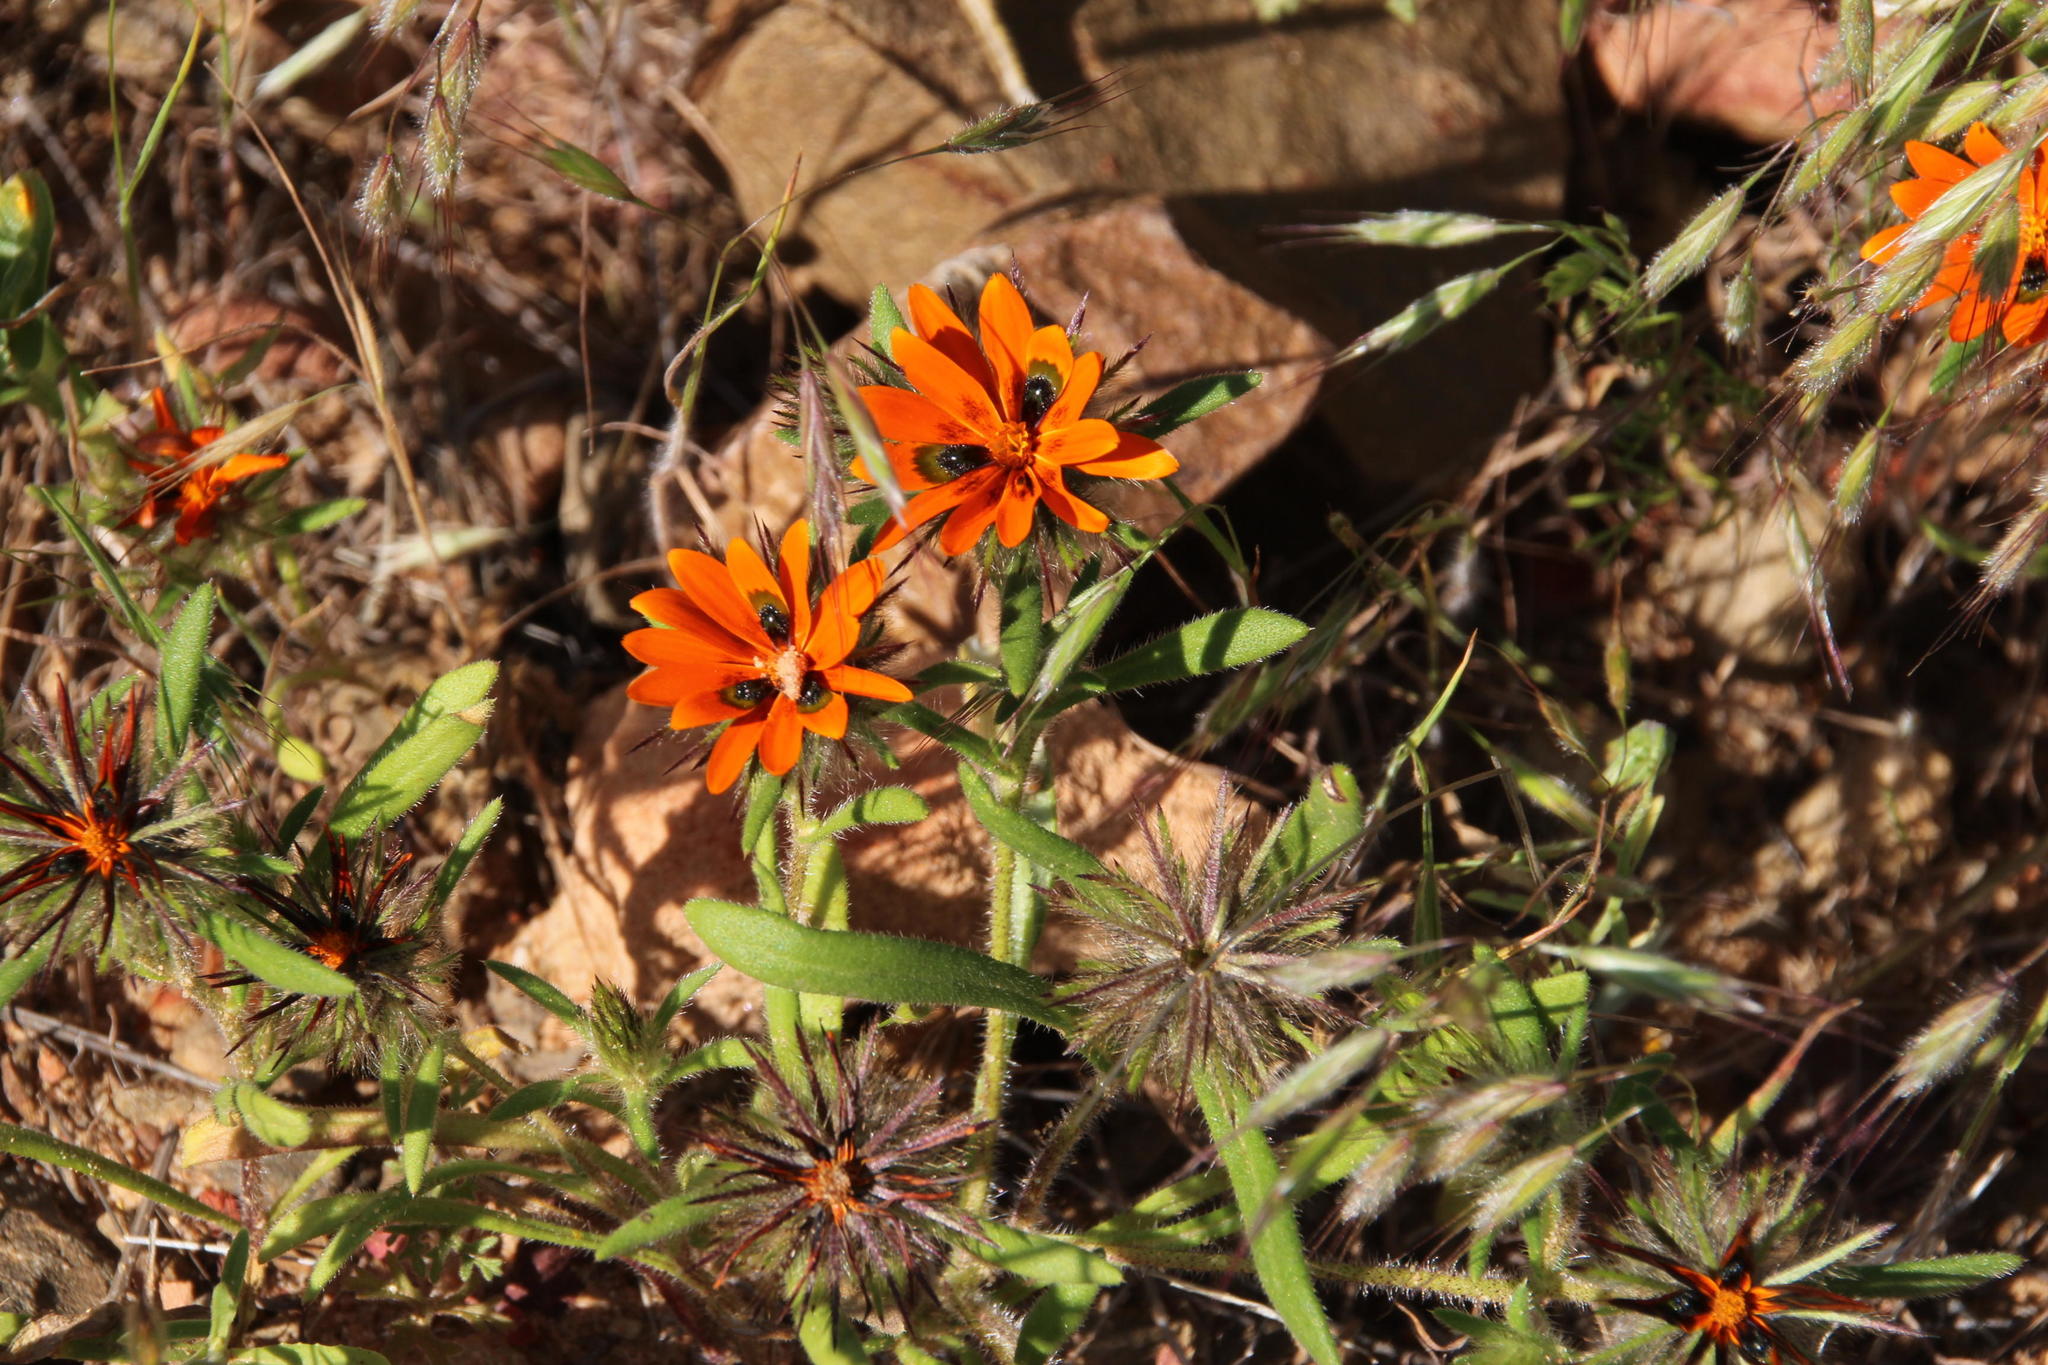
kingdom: Plantae
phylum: Tracheophyta
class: Magnoliopsida
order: Asterales
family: Asteraceae
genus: Gorteria
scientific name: Gorteria diffusa
